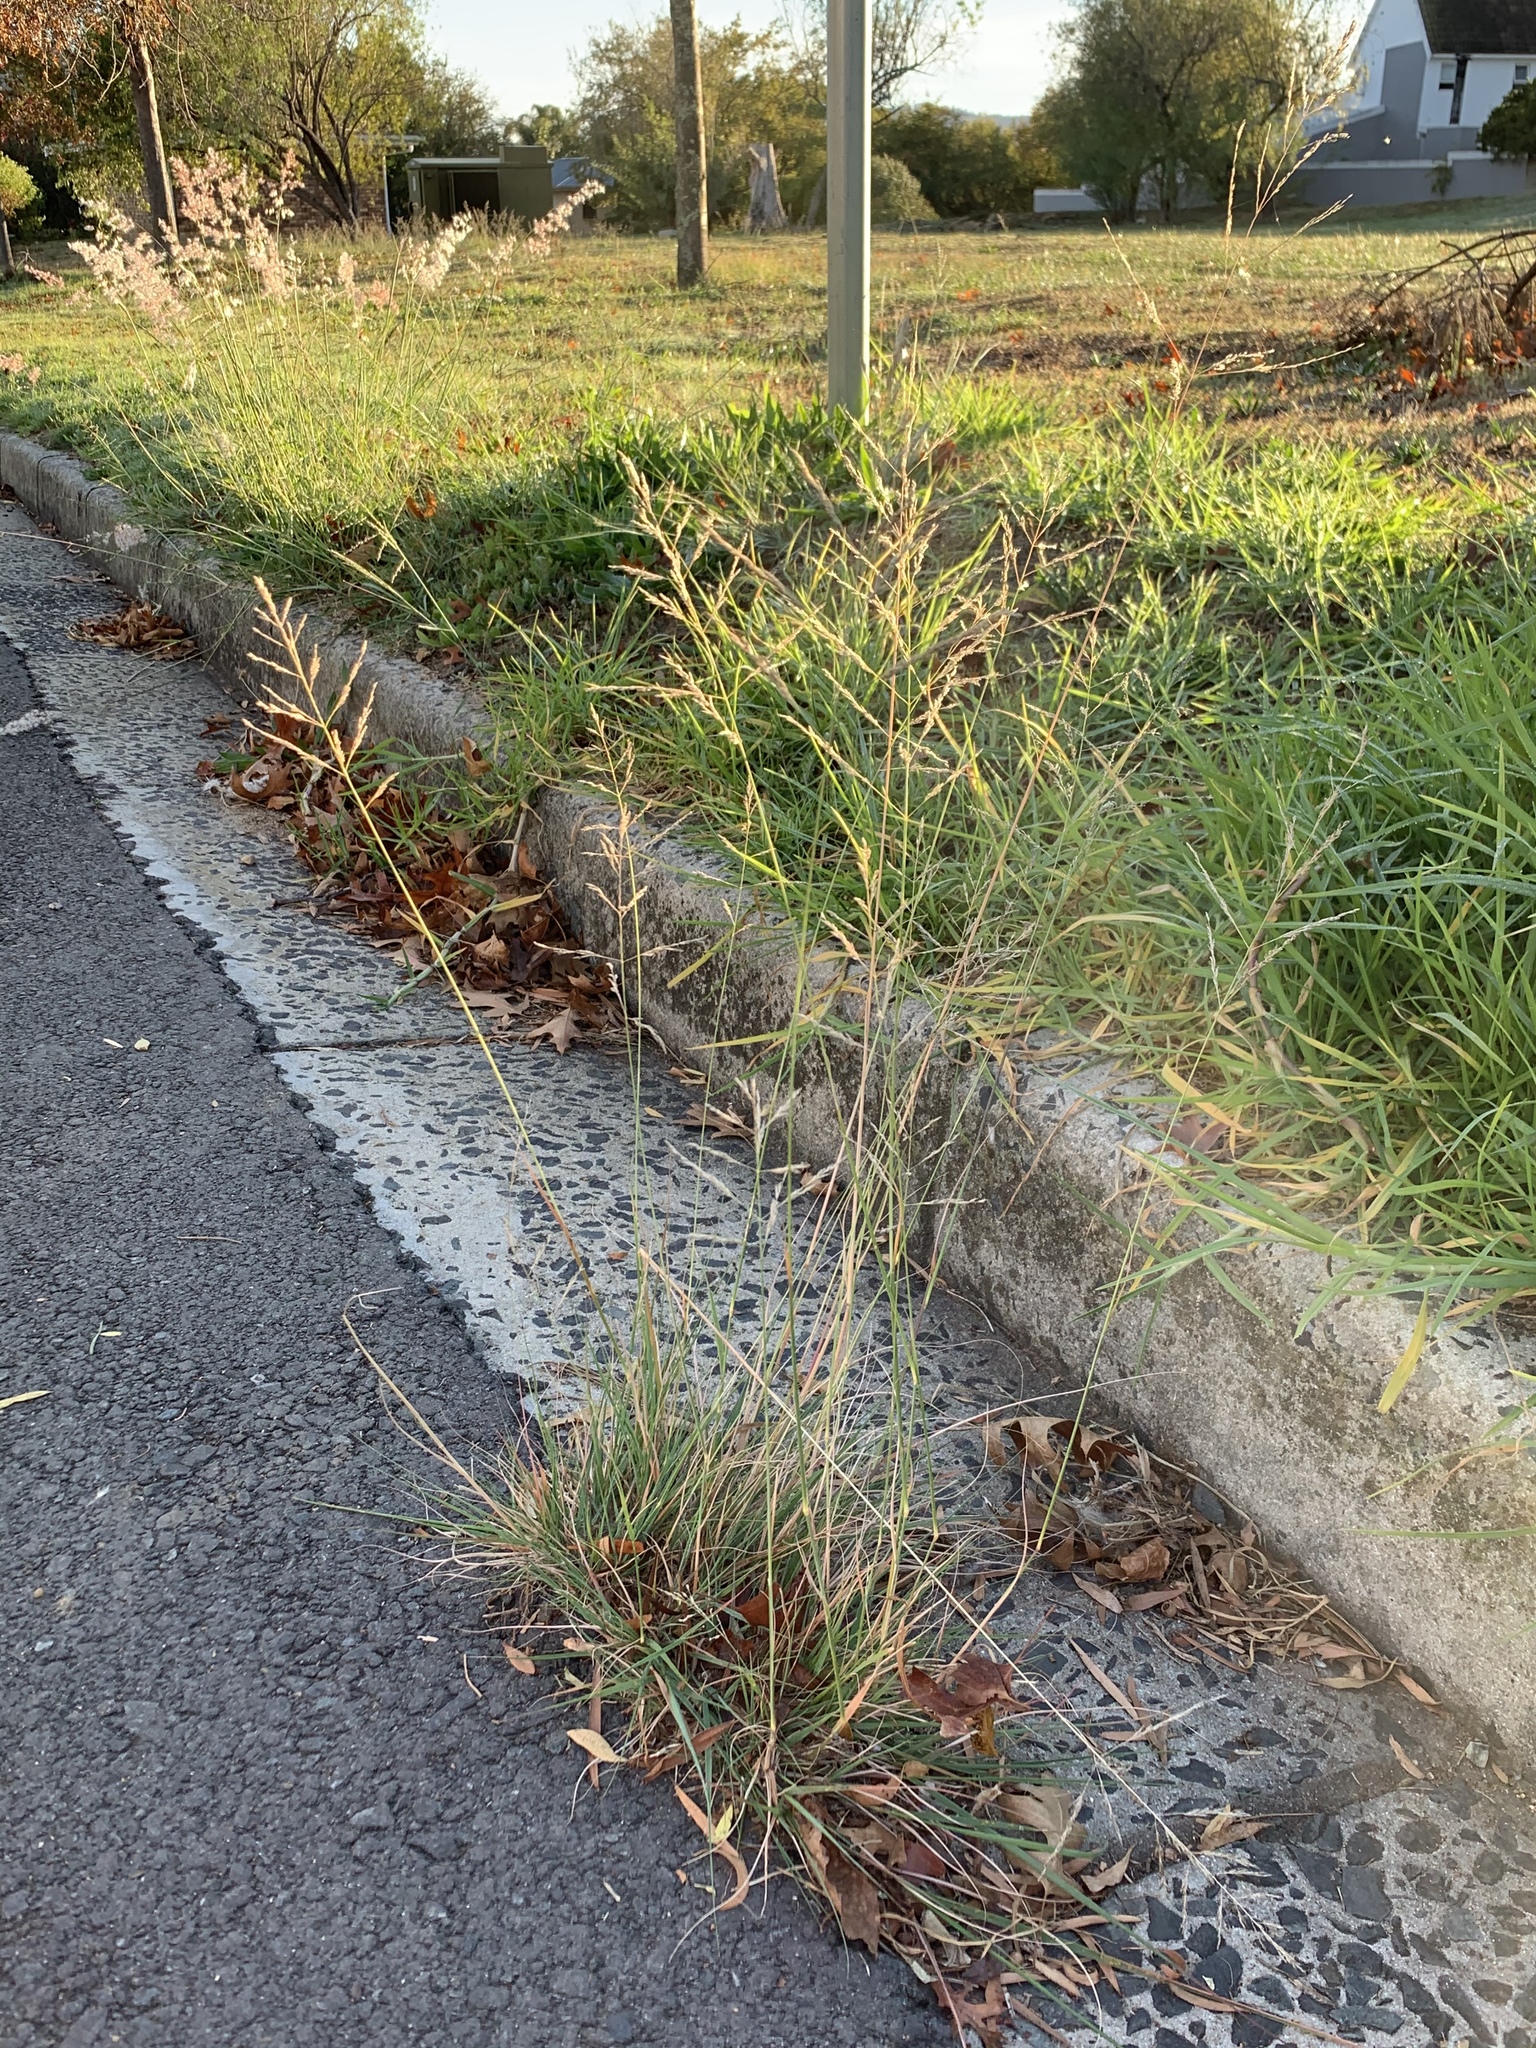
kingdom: Plantae
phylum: Tracheophyta
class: Liliopsida
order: Poales
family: Poaceae
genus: Eragrostis
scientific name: Eragrostis curvula
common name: African love-grass
